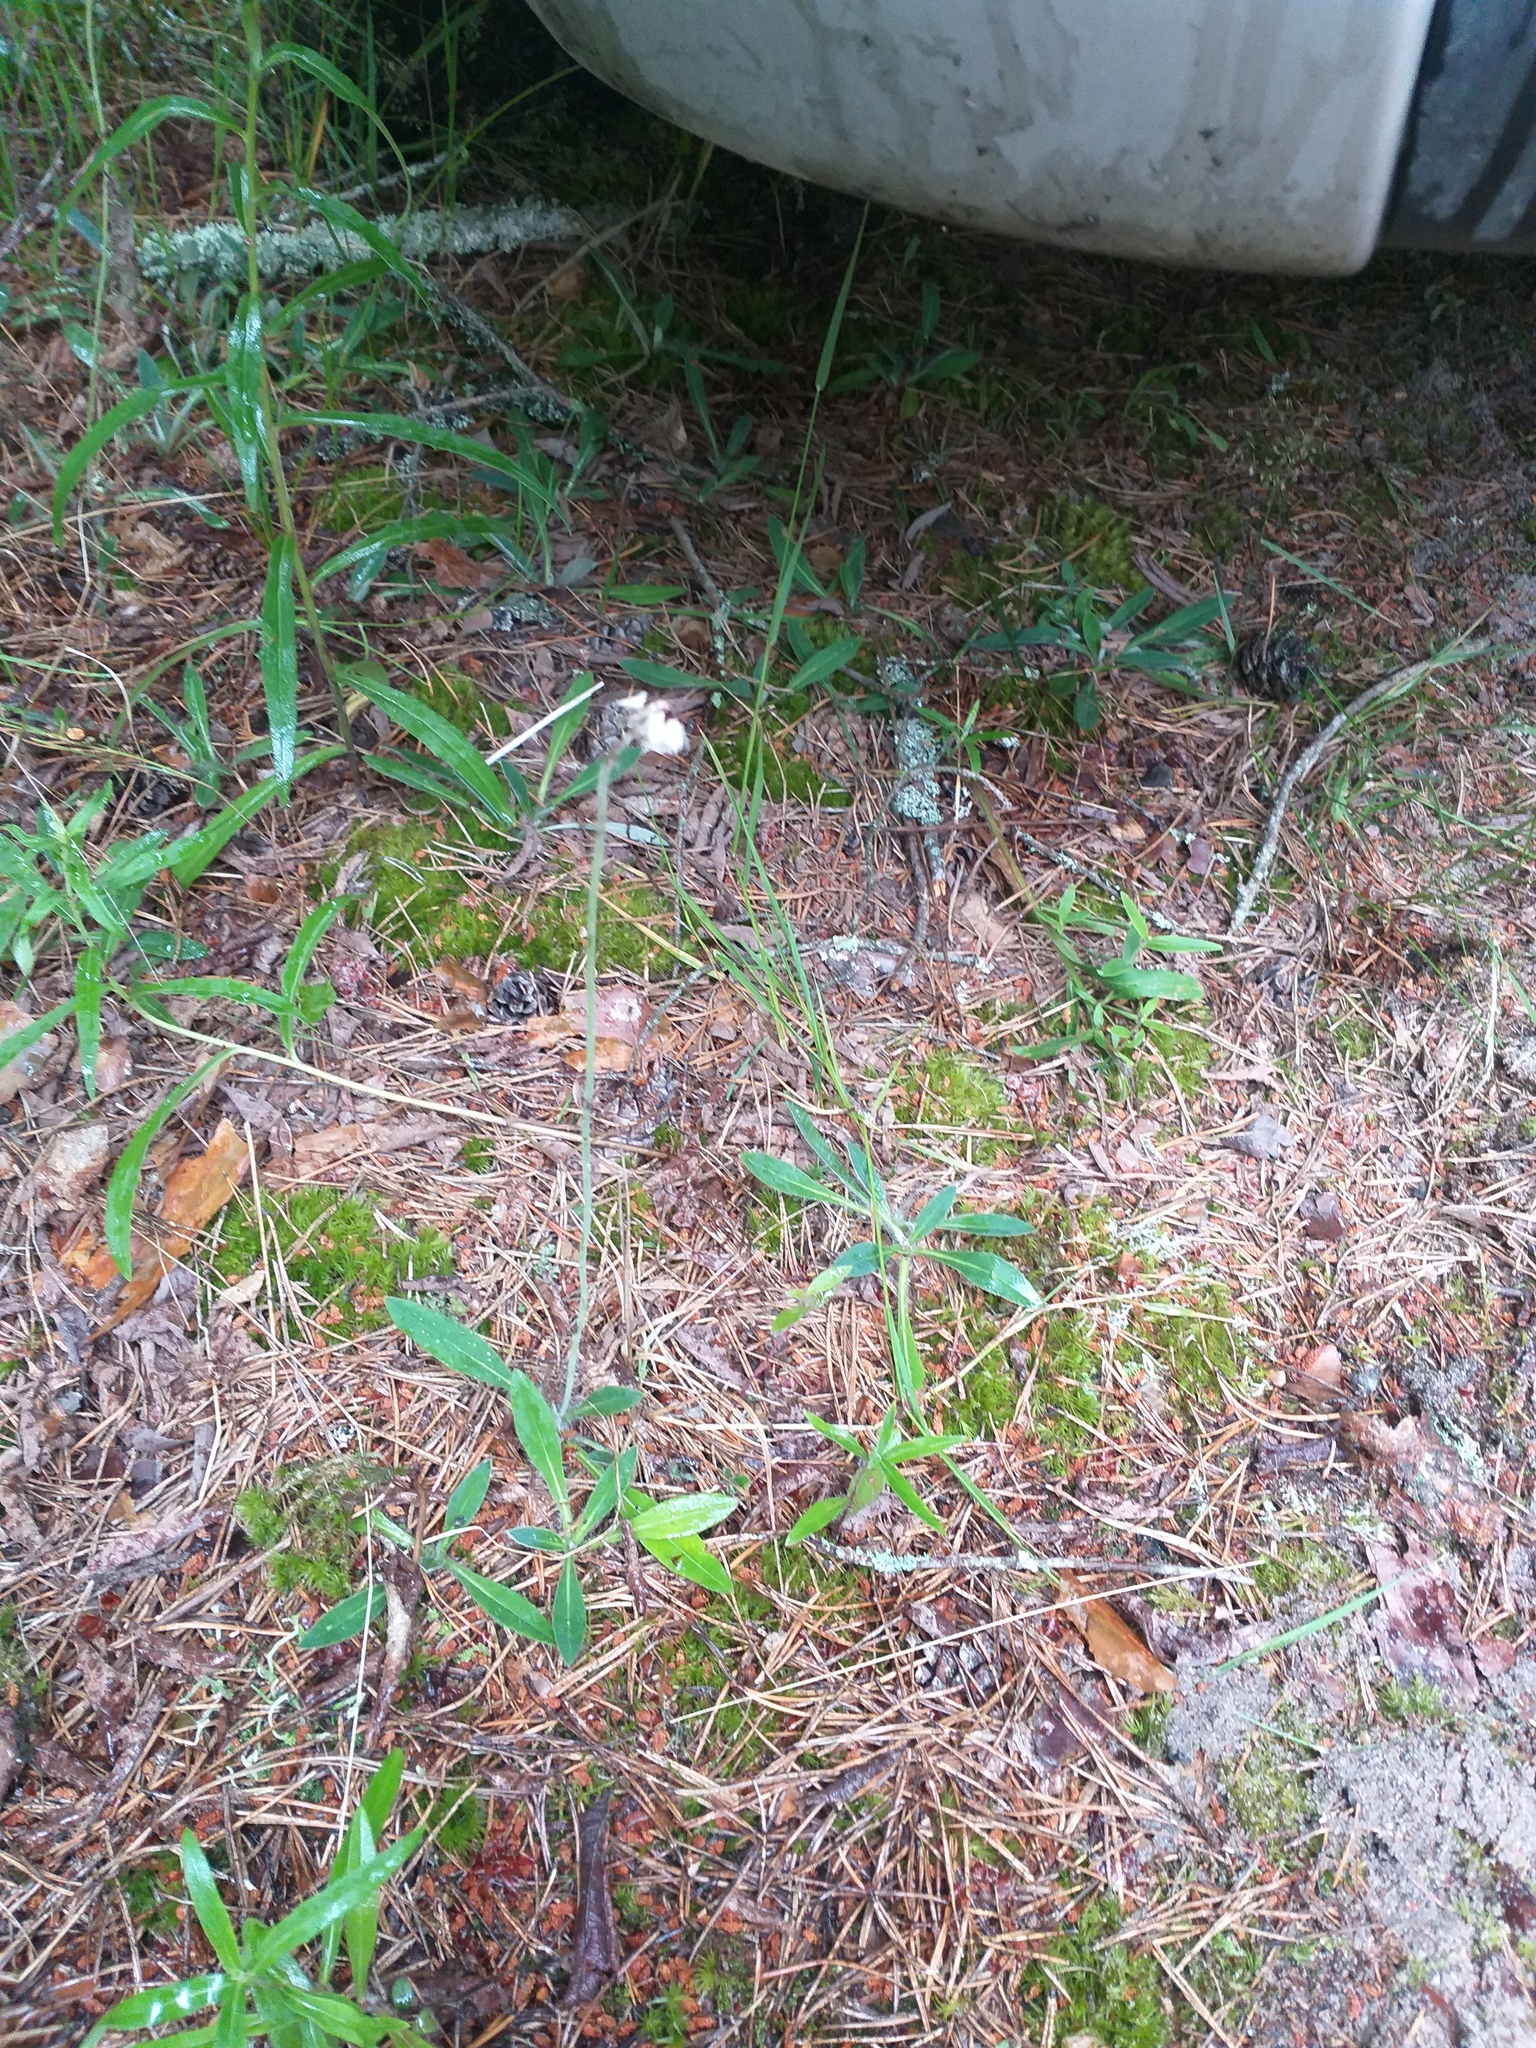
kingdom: Plantae
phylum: Tracheophyta
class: Magnoliopsida
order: Asterales
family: Asteraceae
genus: Pilosella
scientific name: Pilosella officinarum
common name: Mouse-ear hawkweed
